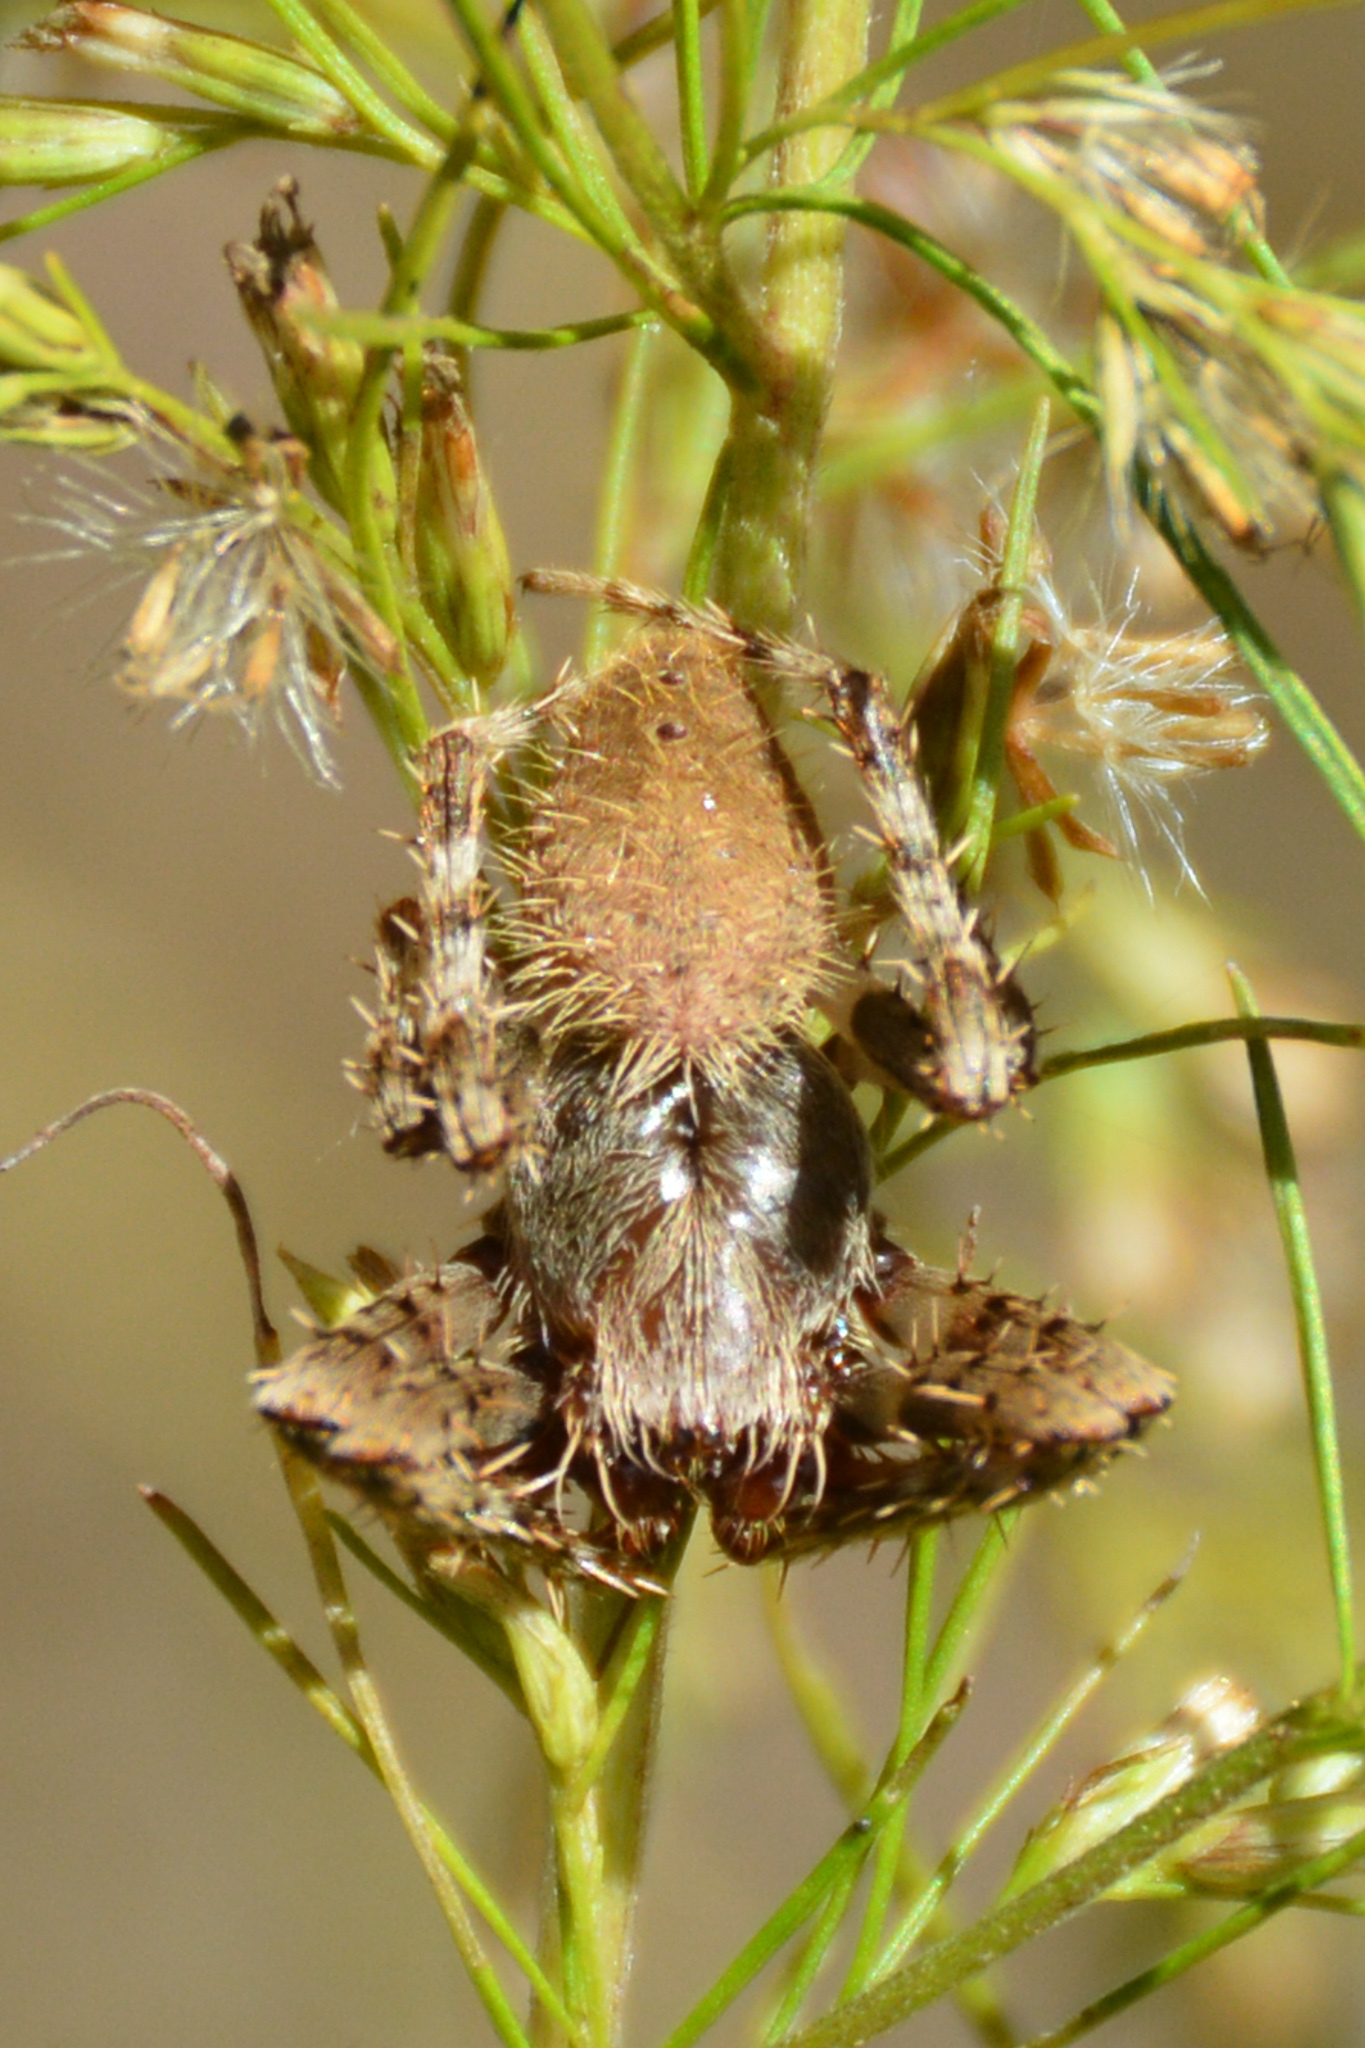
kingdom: Animalia
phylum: Arthropoda
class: Arachnida
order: Araneae
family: Araneidae
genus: Eriophora
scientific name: Eriophora ravilla
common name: Orb weavers
